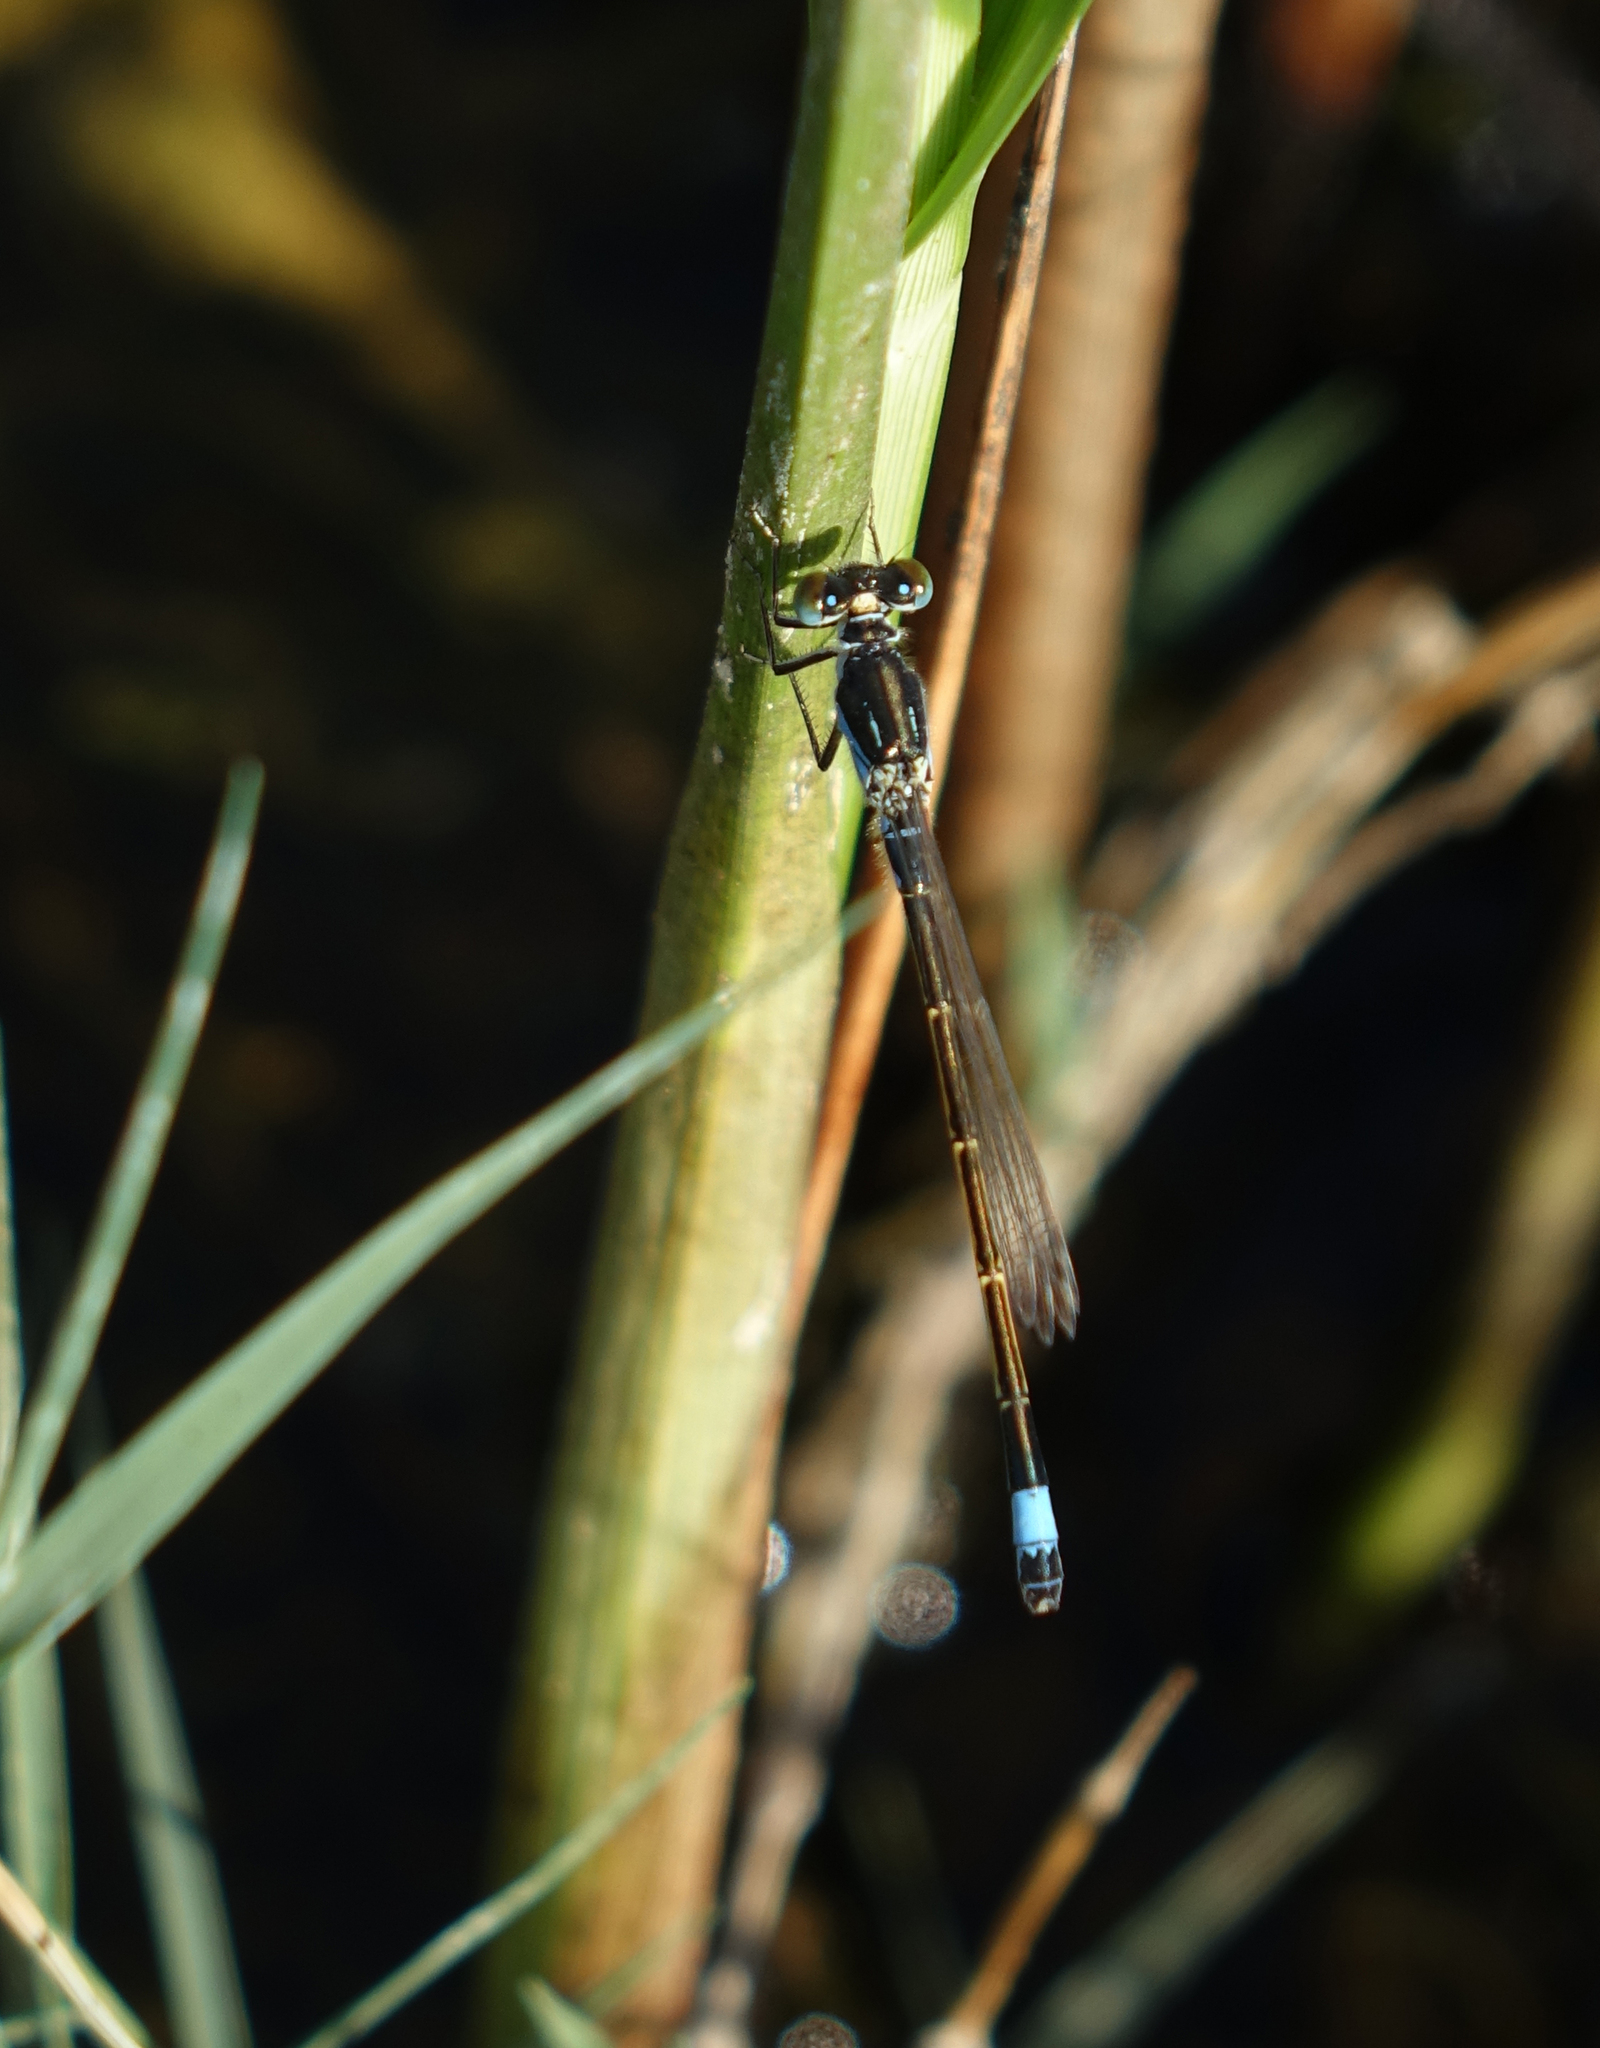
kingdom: Animalia
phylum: Arthropoda
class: Insecta
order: Odonata
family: Coenagrionidae
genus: Ischnura
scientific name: Ischnura fountaineae
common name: Oasis bluetail
